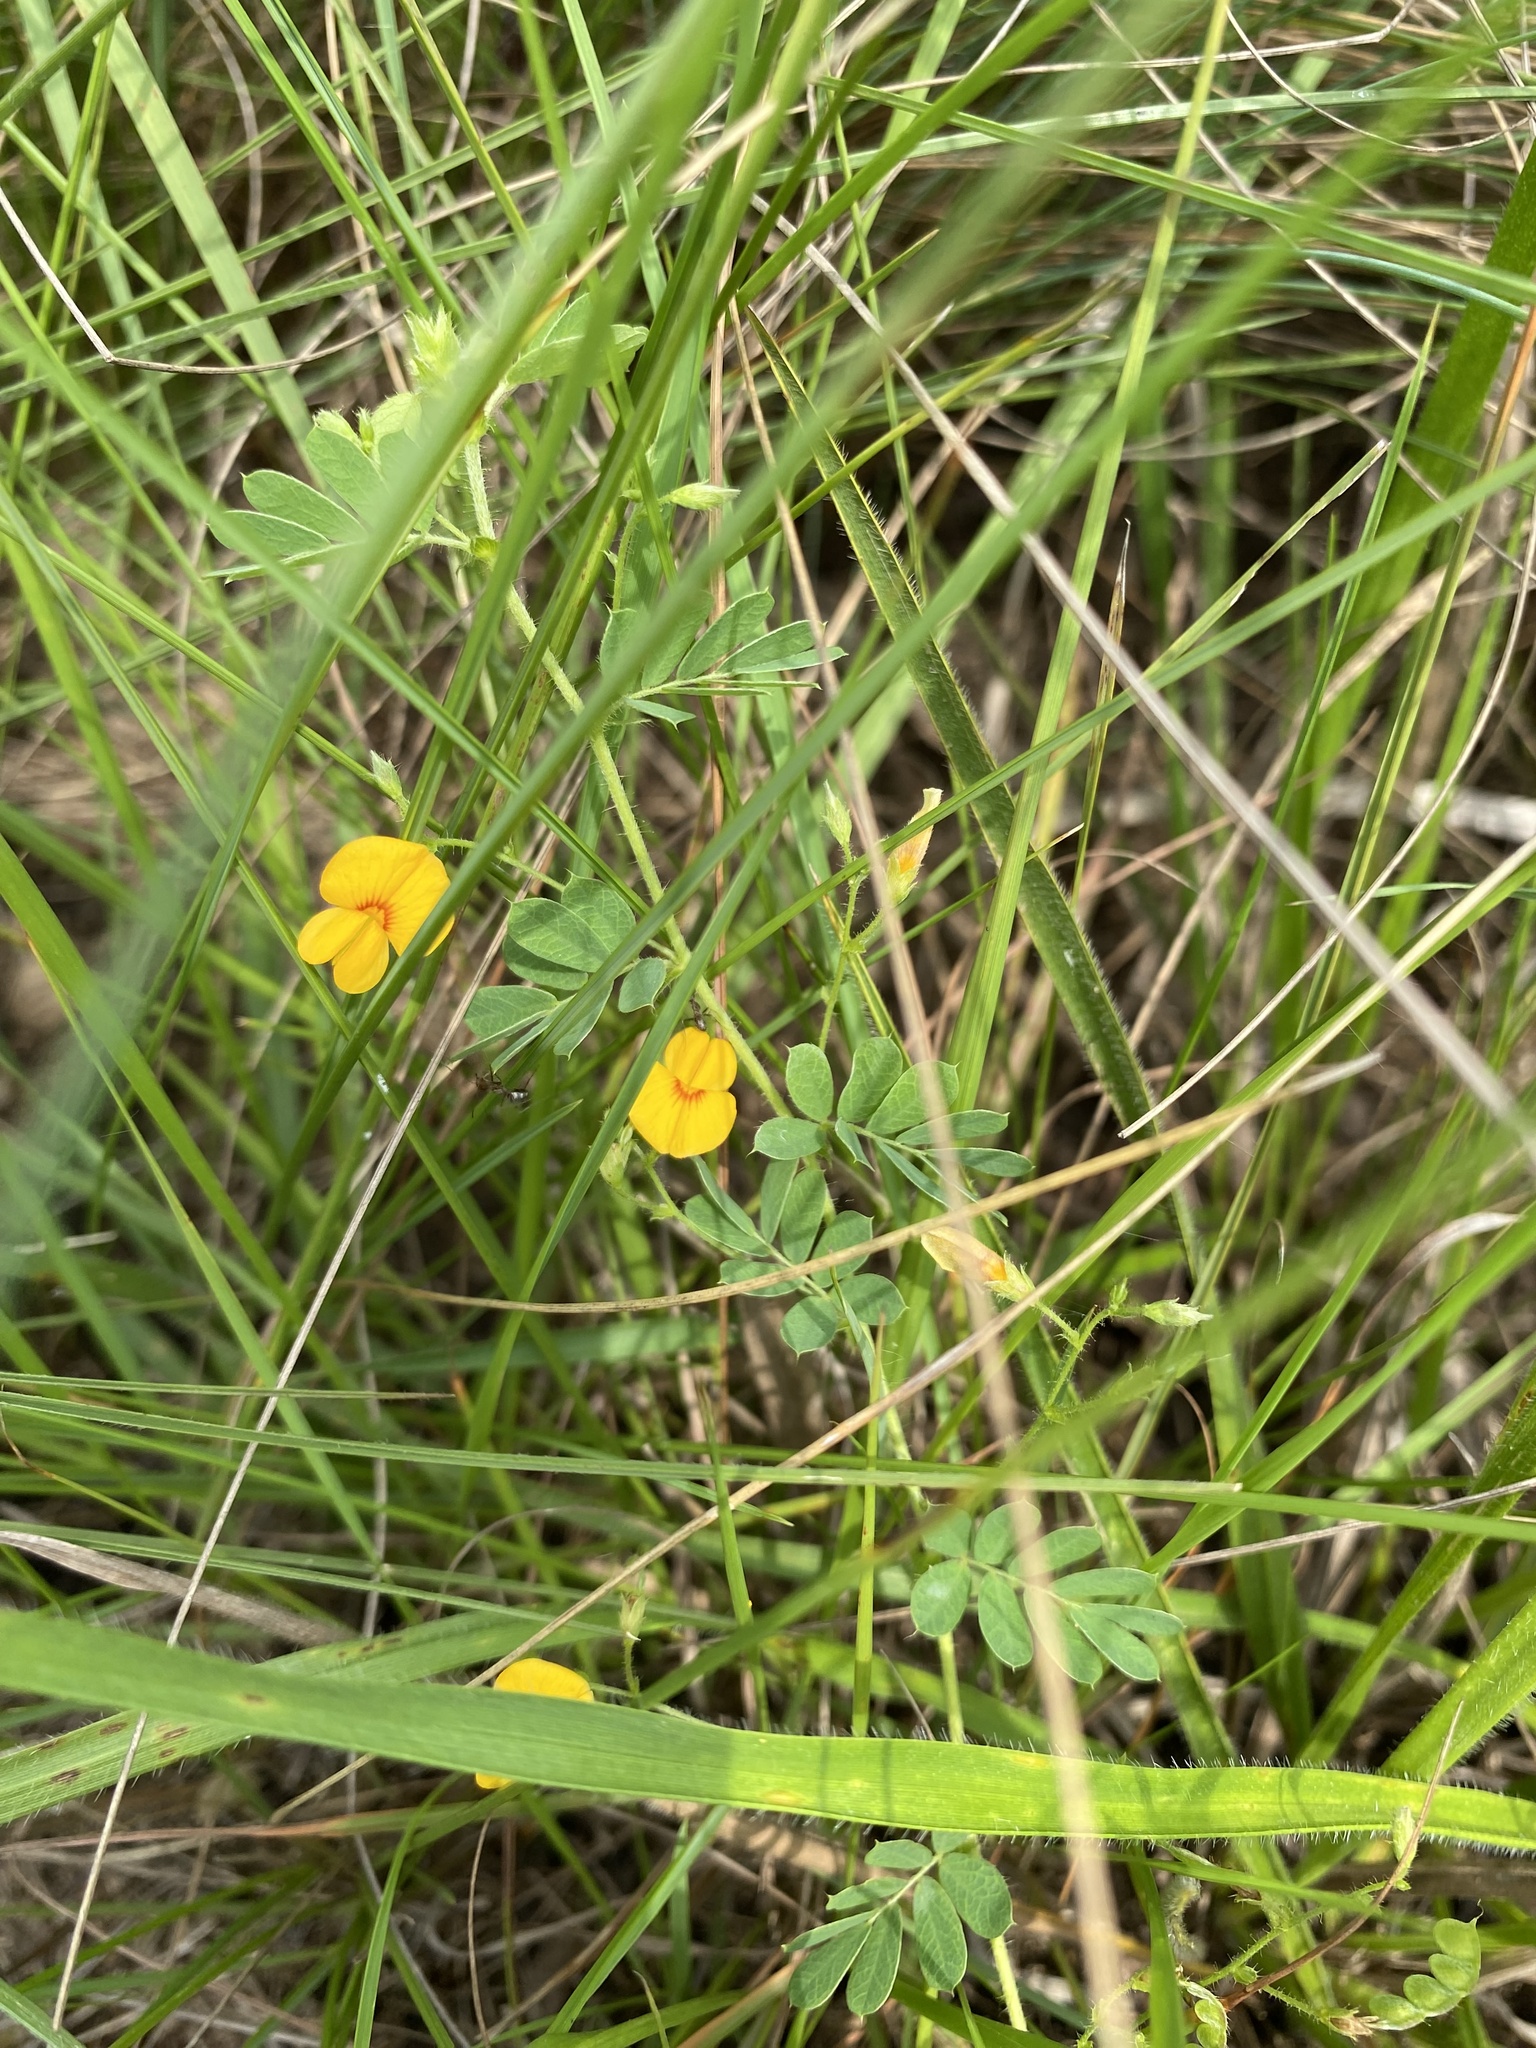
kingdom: Plantae
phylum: Tracheophyta
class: Magnoliopsida
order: Fabales
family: Fabaceae
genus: Aeschynomene
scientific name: Aeschynomene brevifolia
